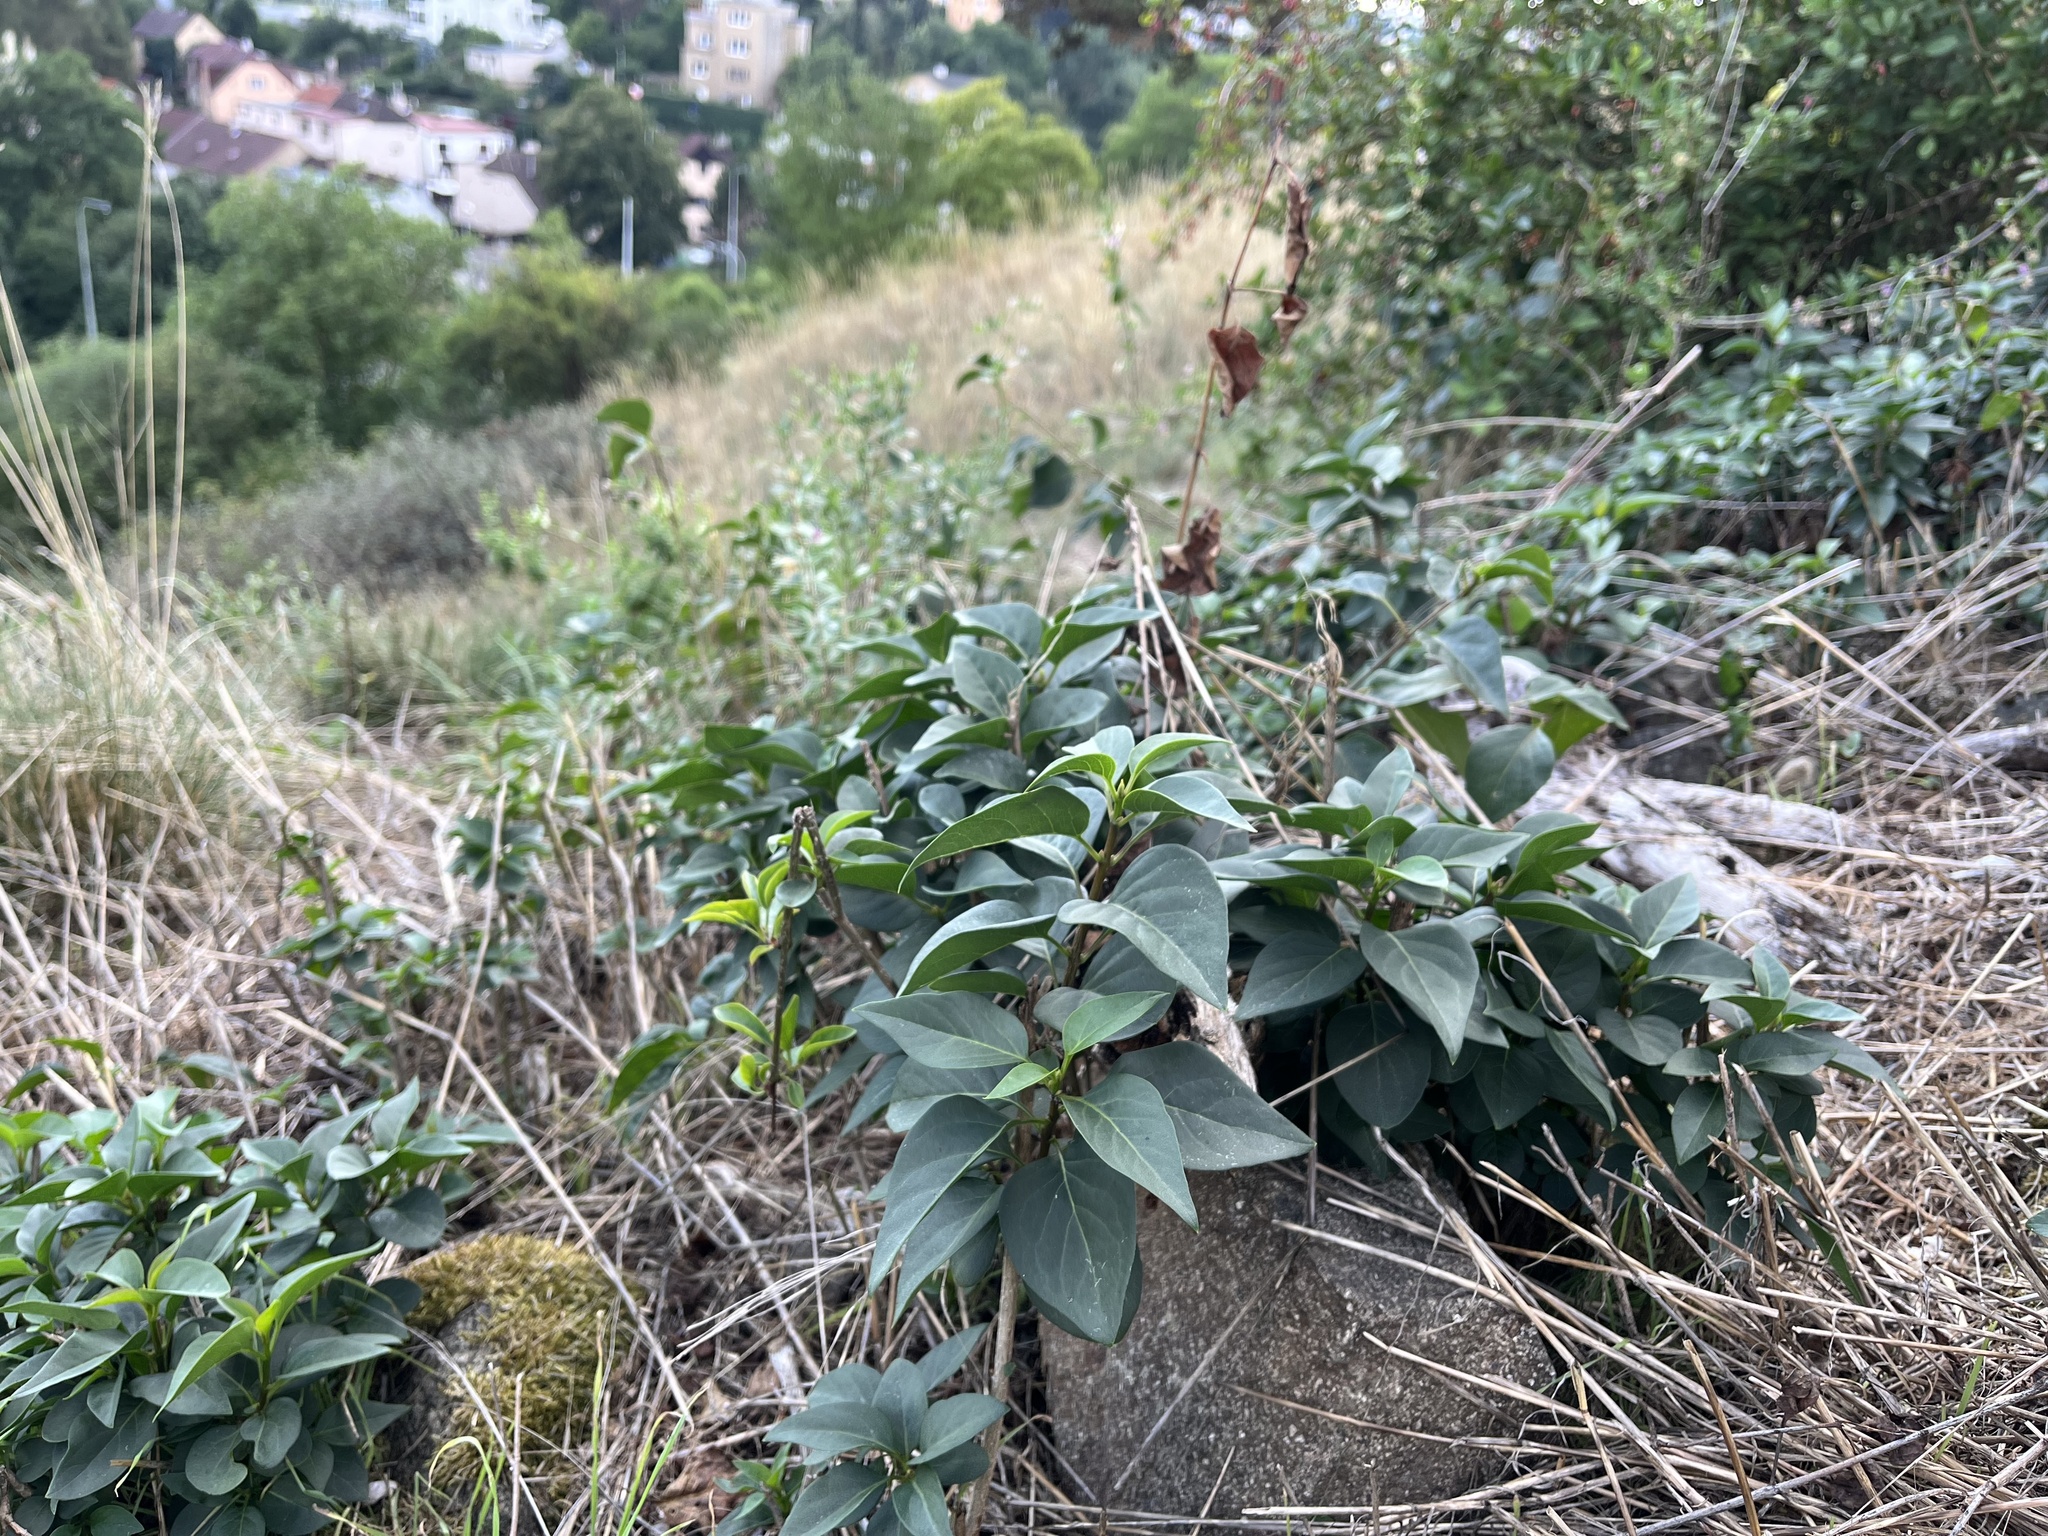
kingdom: Plantae
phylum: Tracheophyta
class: Magnoliopsida
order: Lamiales
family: Oleaceae
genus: Syringa
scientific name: Syringa vulgaris
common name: Common lilac
